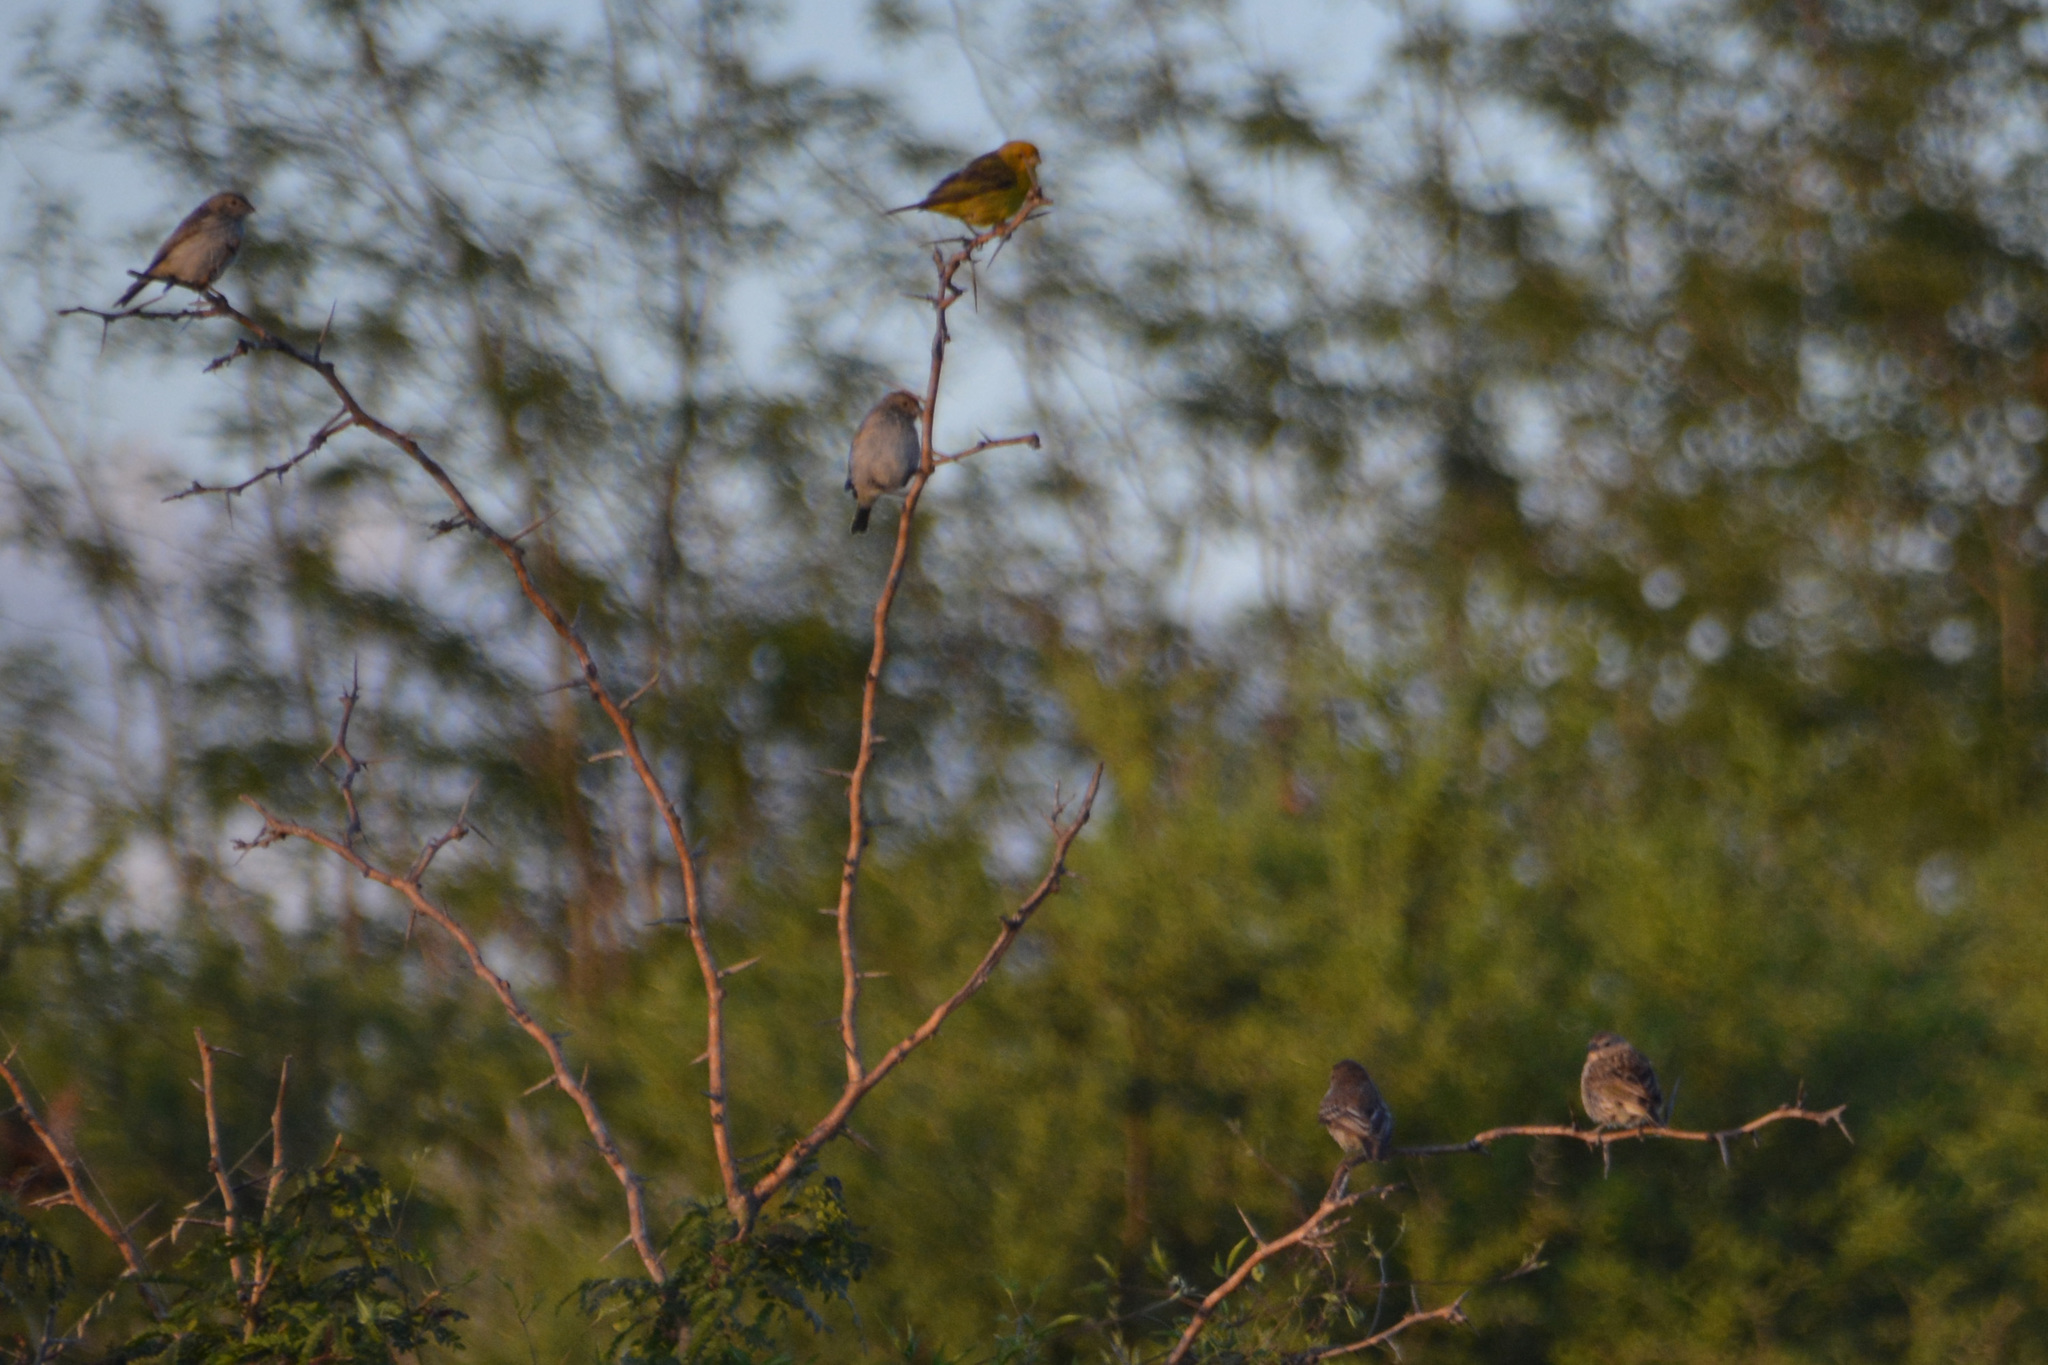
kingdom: Animalia
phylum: Chordata
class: Aves
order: Passeriformes
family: Thraupidae
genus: Sicalis
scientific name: Sicalis flaveola
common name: Saffron finch
